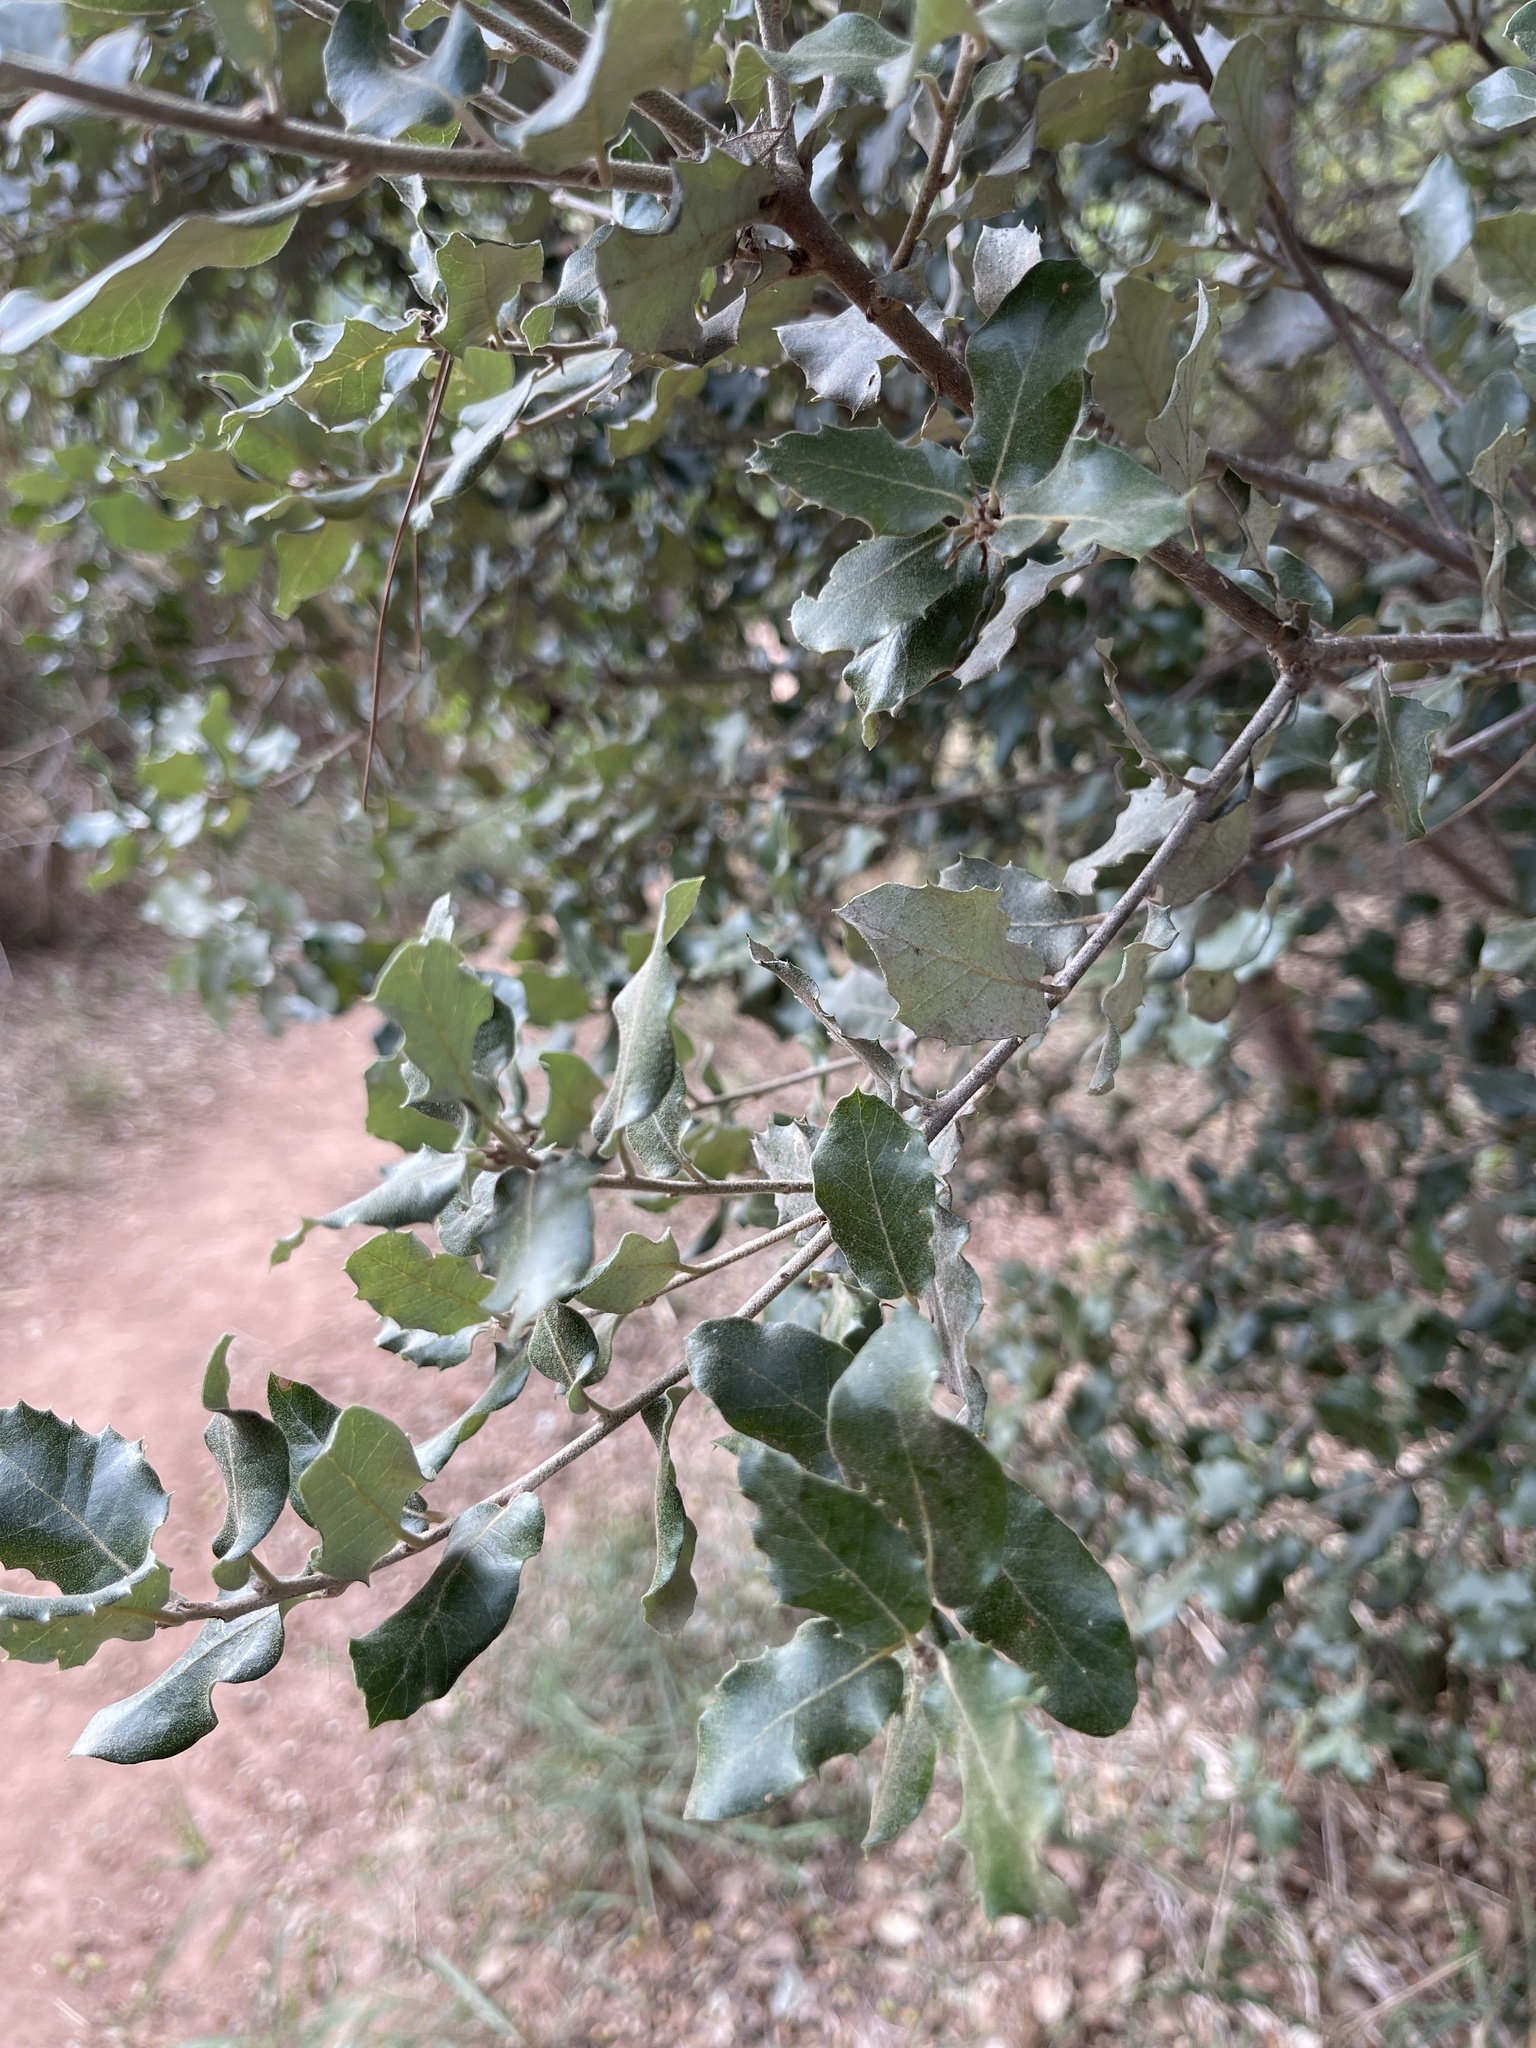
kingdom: Plantae
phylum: Tracheophyta
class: Magnoliopsida
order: Fagales
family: Fagaceae
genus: Quercus
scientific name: Quercus autumnalis
